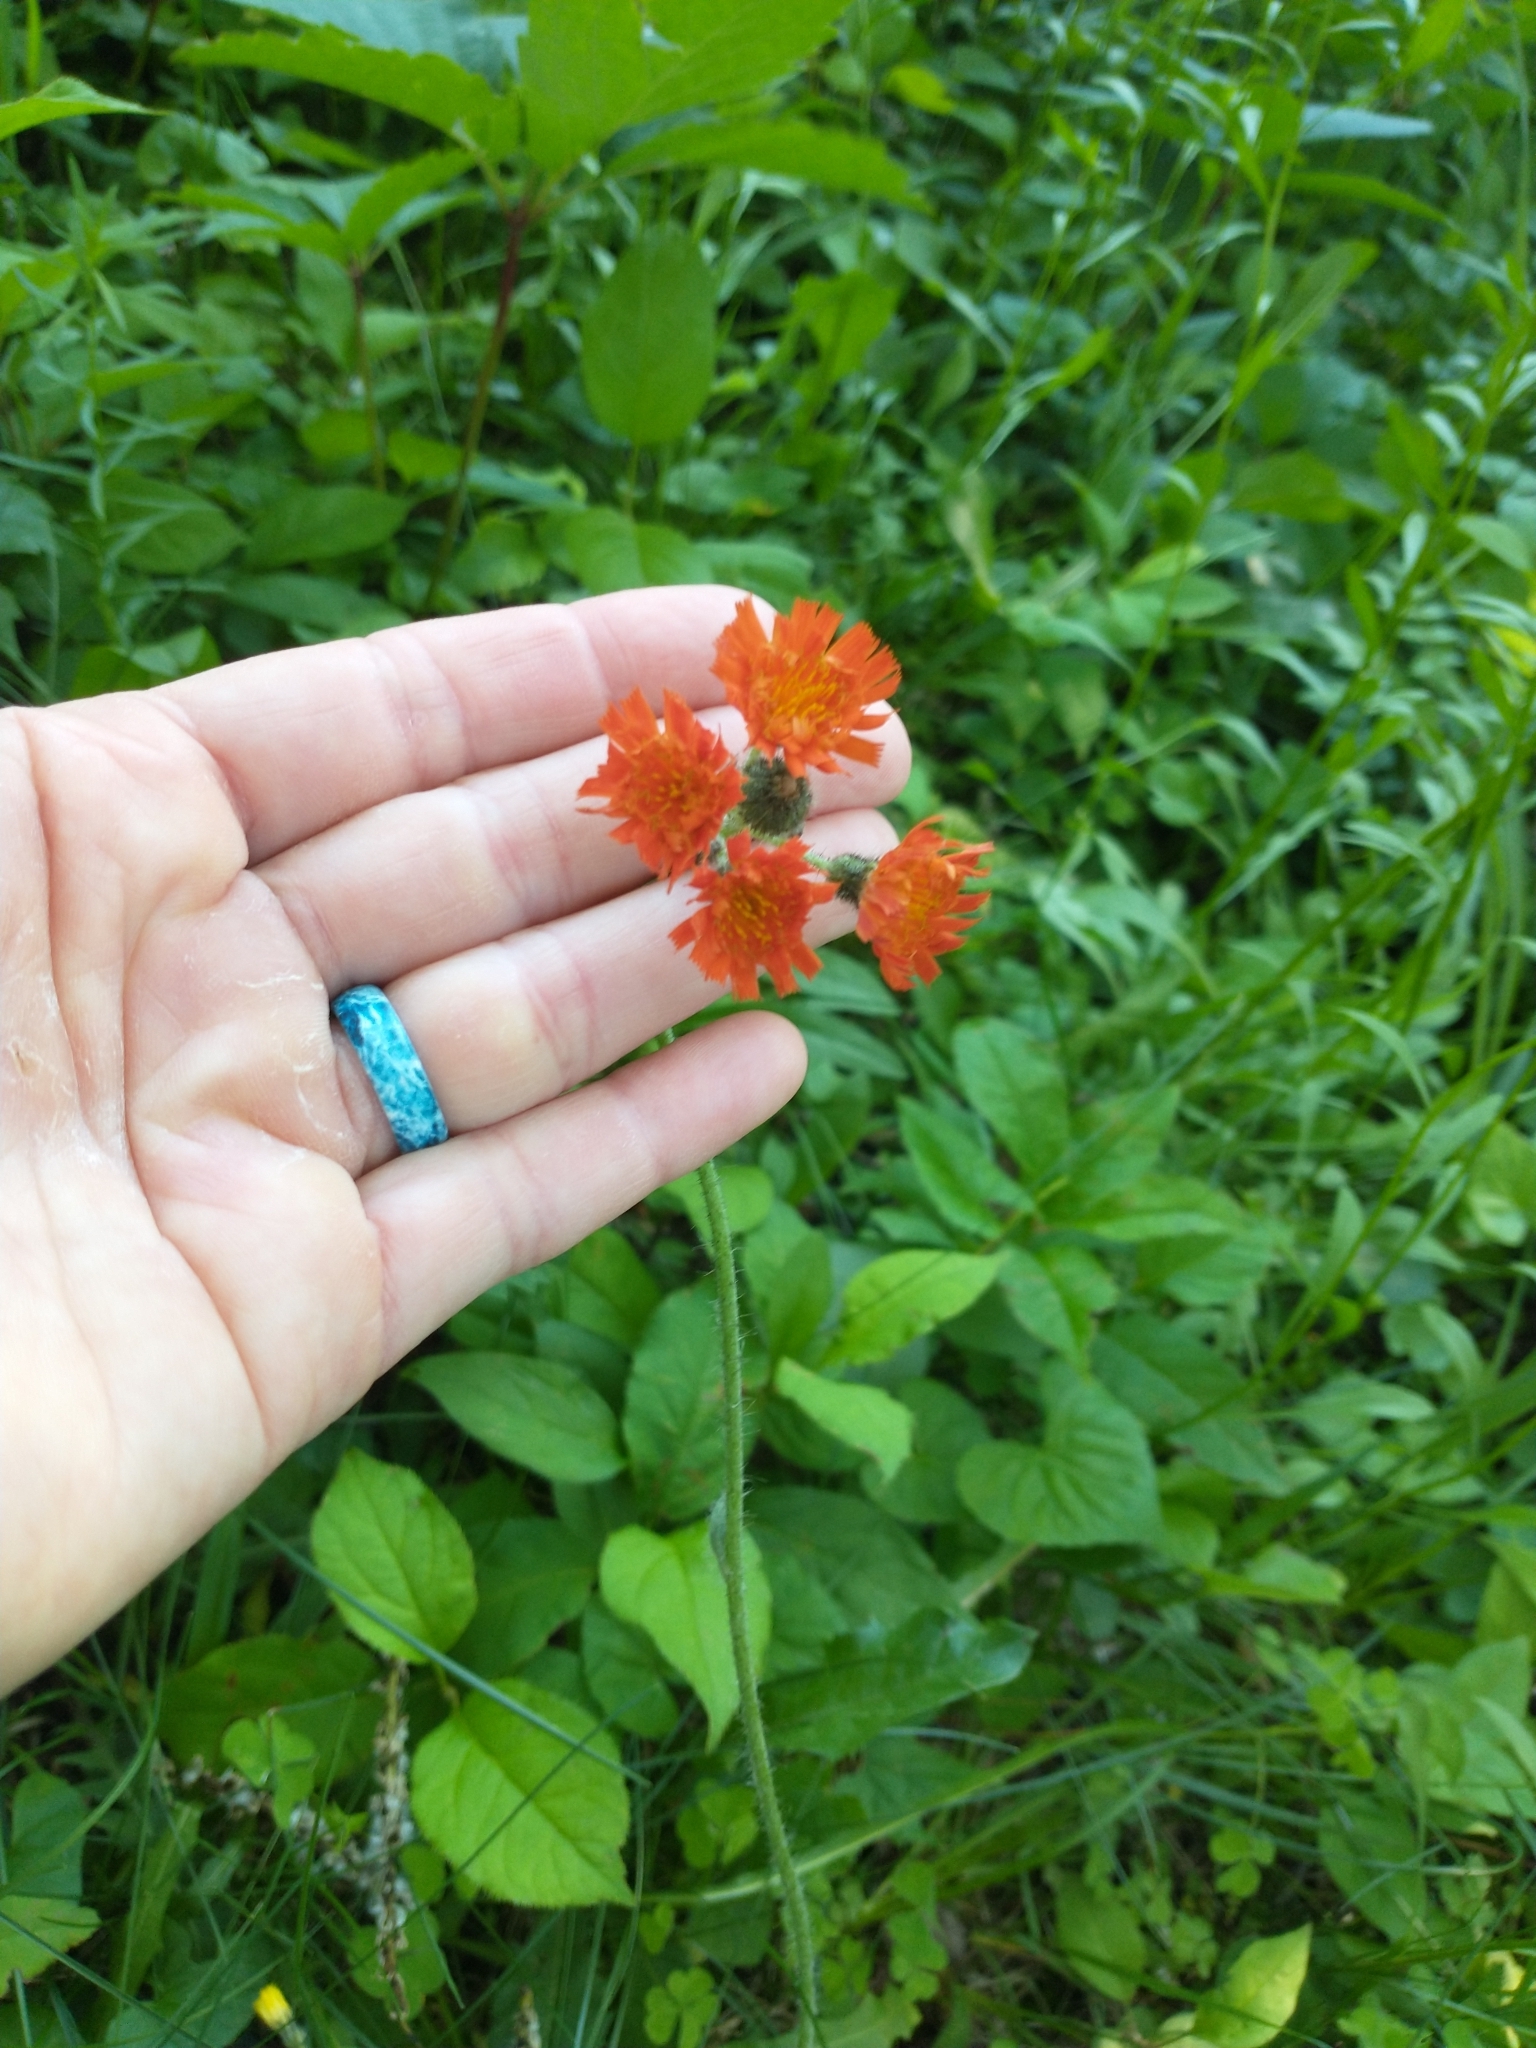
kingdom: Plantae
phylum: Tracheophyta
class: Magnoliopsida
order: Asterales
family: Asteraceae
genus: Pilosella
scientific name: Pilosella aurantiaca
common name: Fox-and-cubs
